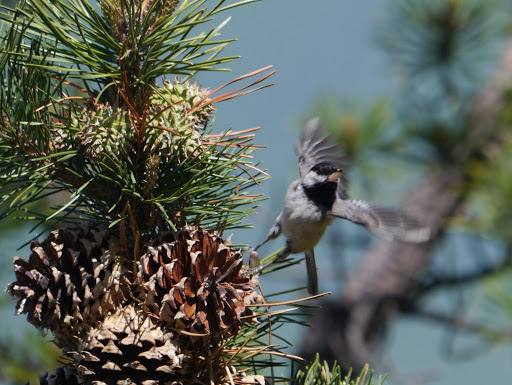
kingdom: Animalia
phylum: Chordata
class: Aves
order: Passeriformes
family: Paridae
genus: Poecile
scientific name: Poecile atricapillus
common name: Black-capped chickadee
